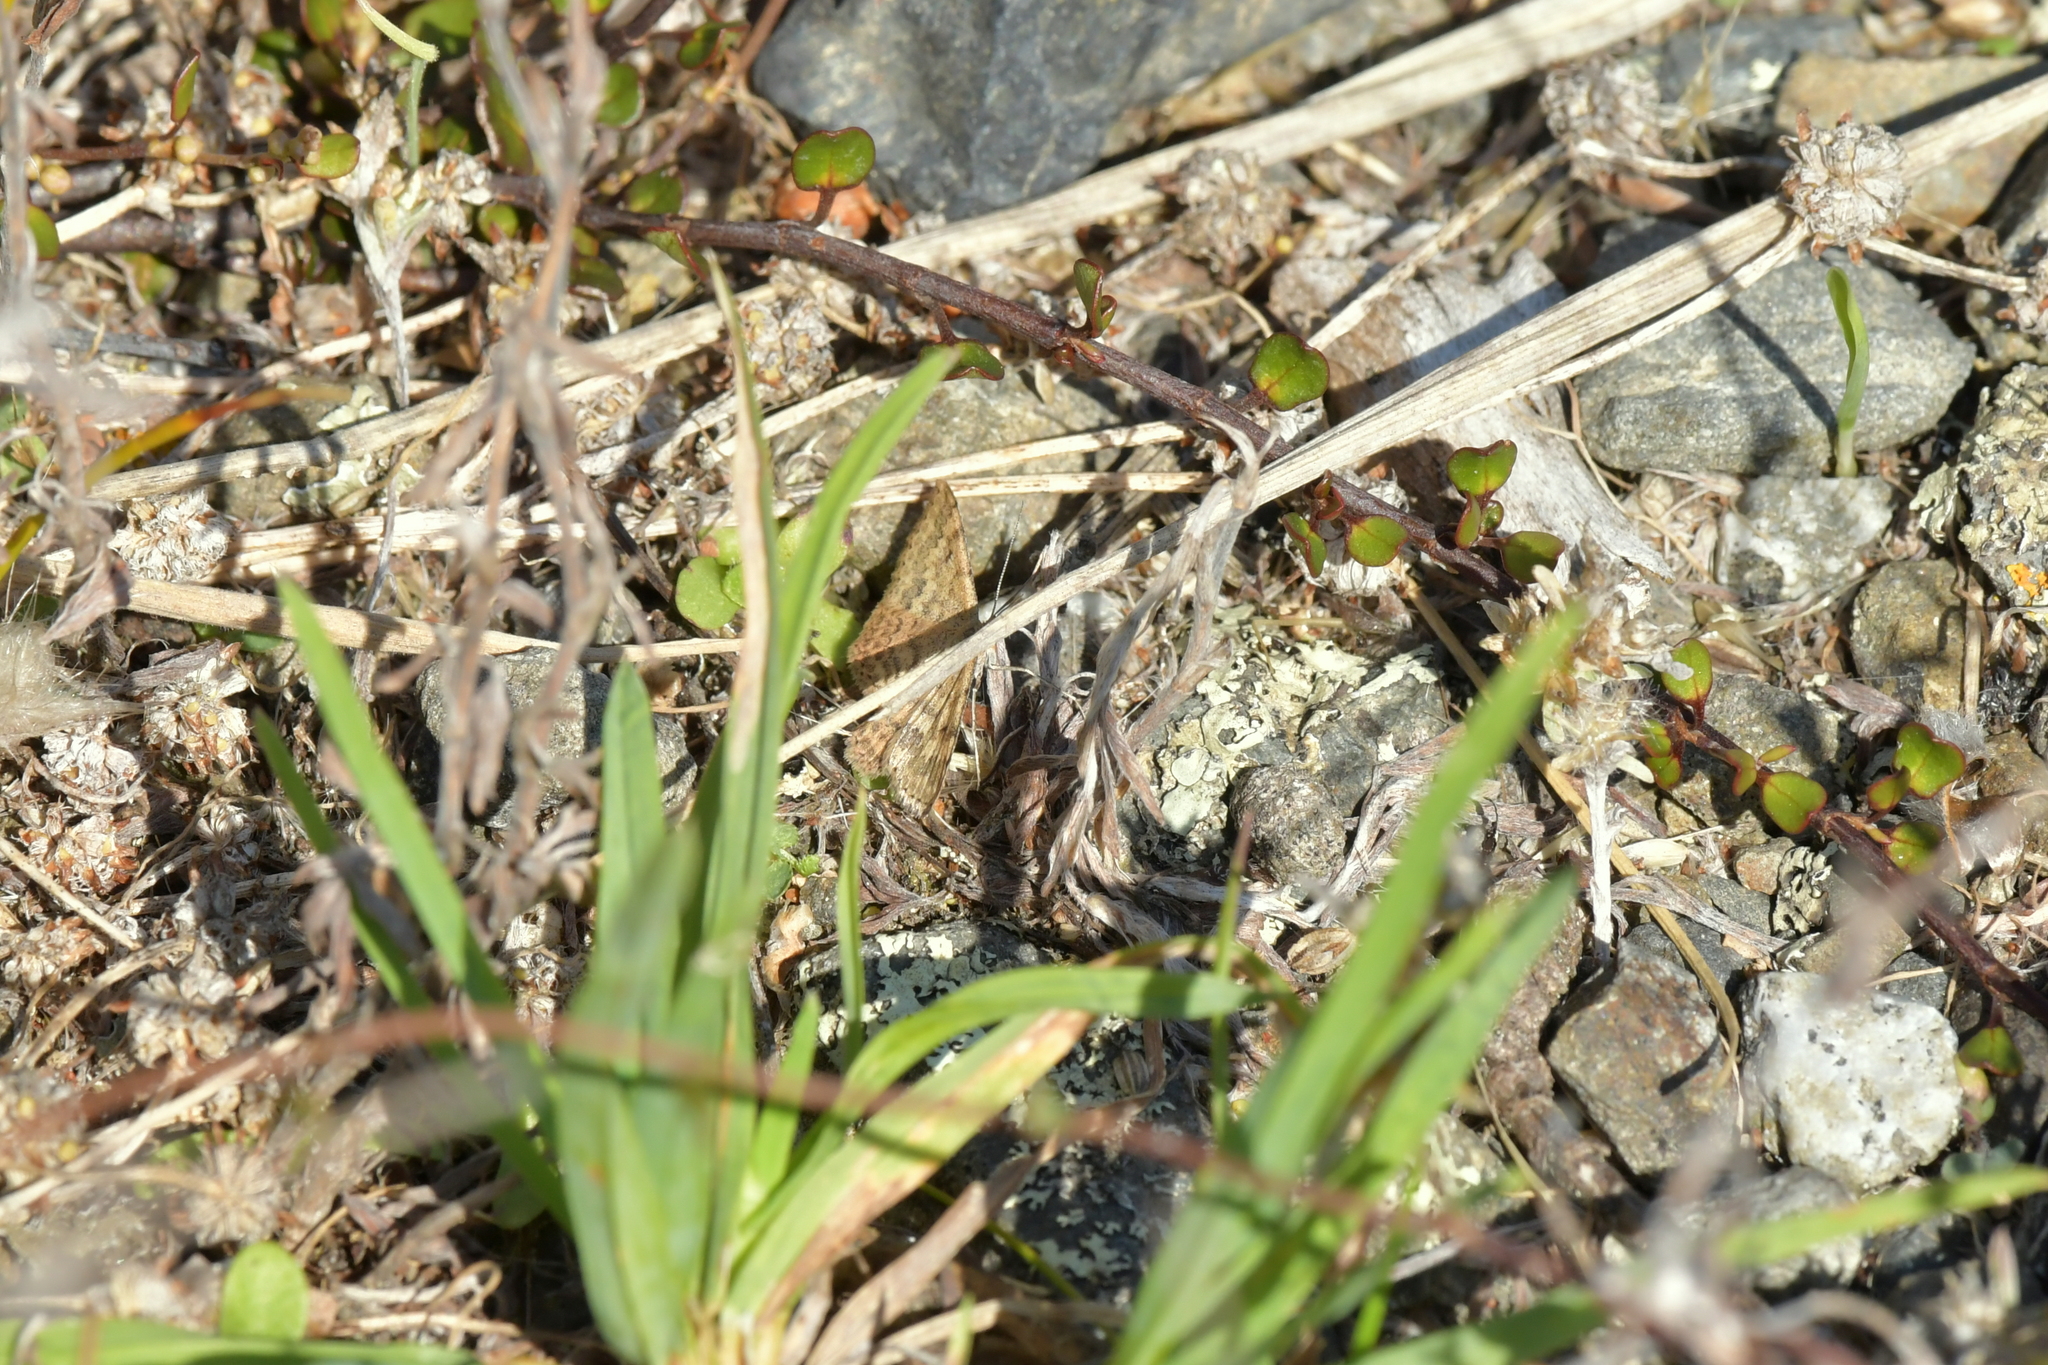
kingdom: Animalia
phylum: Arthropoda
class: Insecta
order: Lepidoptera
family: Geometridae
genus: Scopula
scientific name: Scopula rubraria
